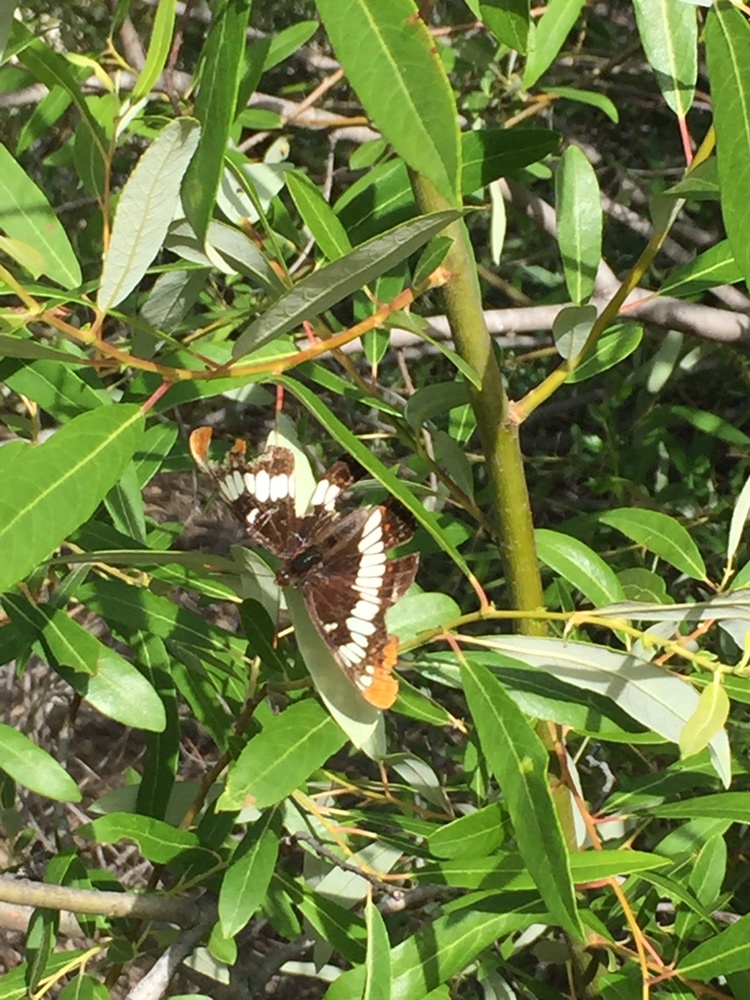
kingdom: Animalia
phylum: Arthropoda
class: Insecta
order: Lepidoptera
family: Nymphalidae
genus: Limenitis
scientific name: Limenitis lorquini
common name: Lorquin's admiral
